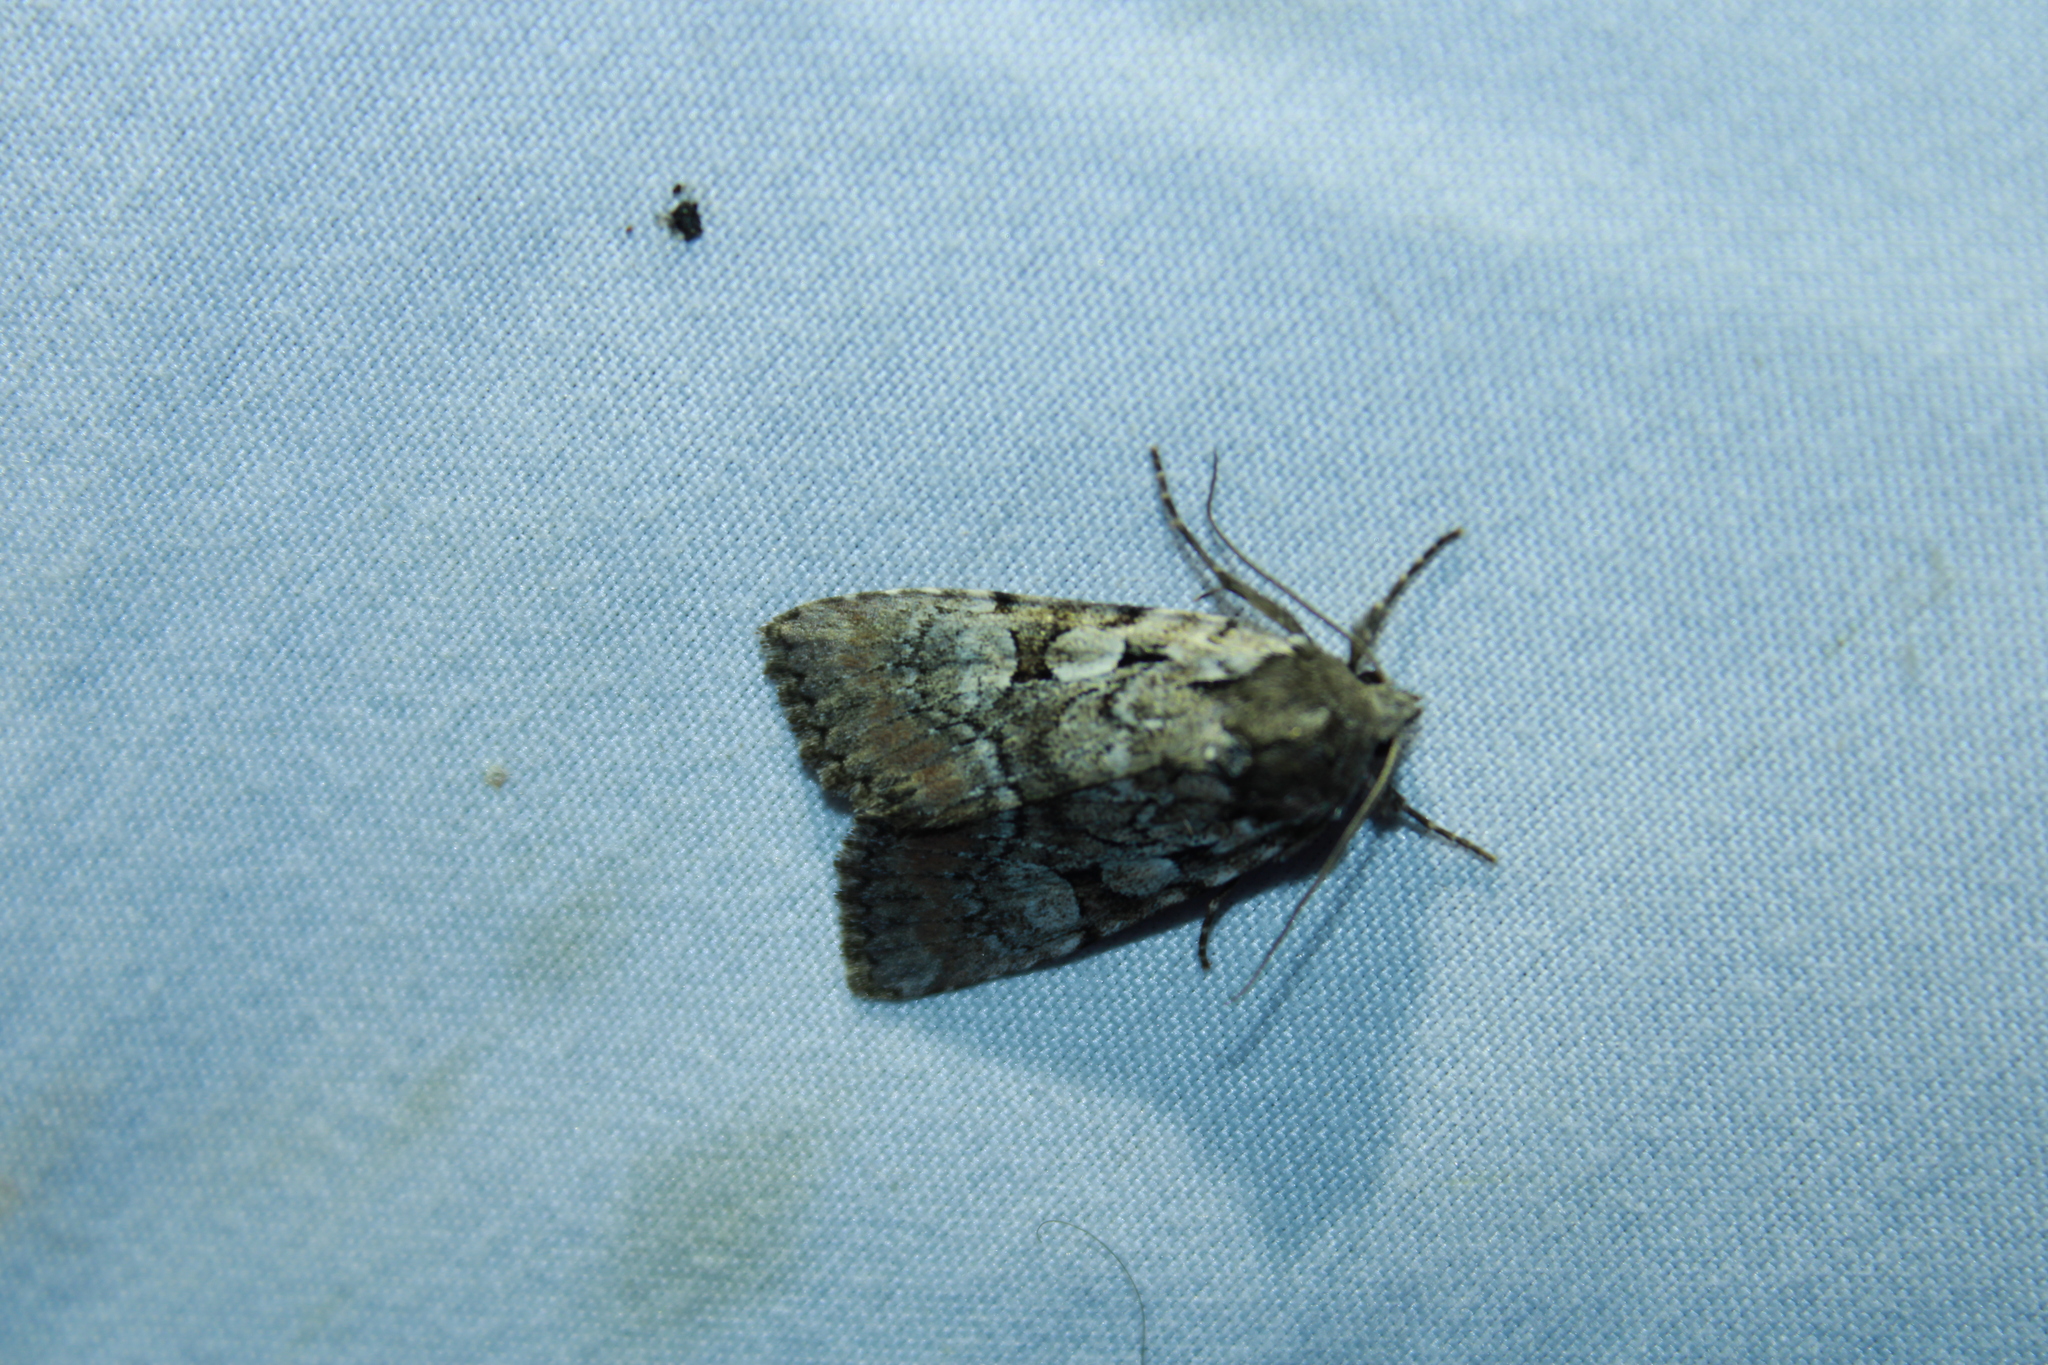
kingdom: Animalia
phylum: Arthropoda
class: Insecta
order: Lepidoptera
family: Noctuidae
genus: Aplectoides
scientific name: Aplectoides condita
